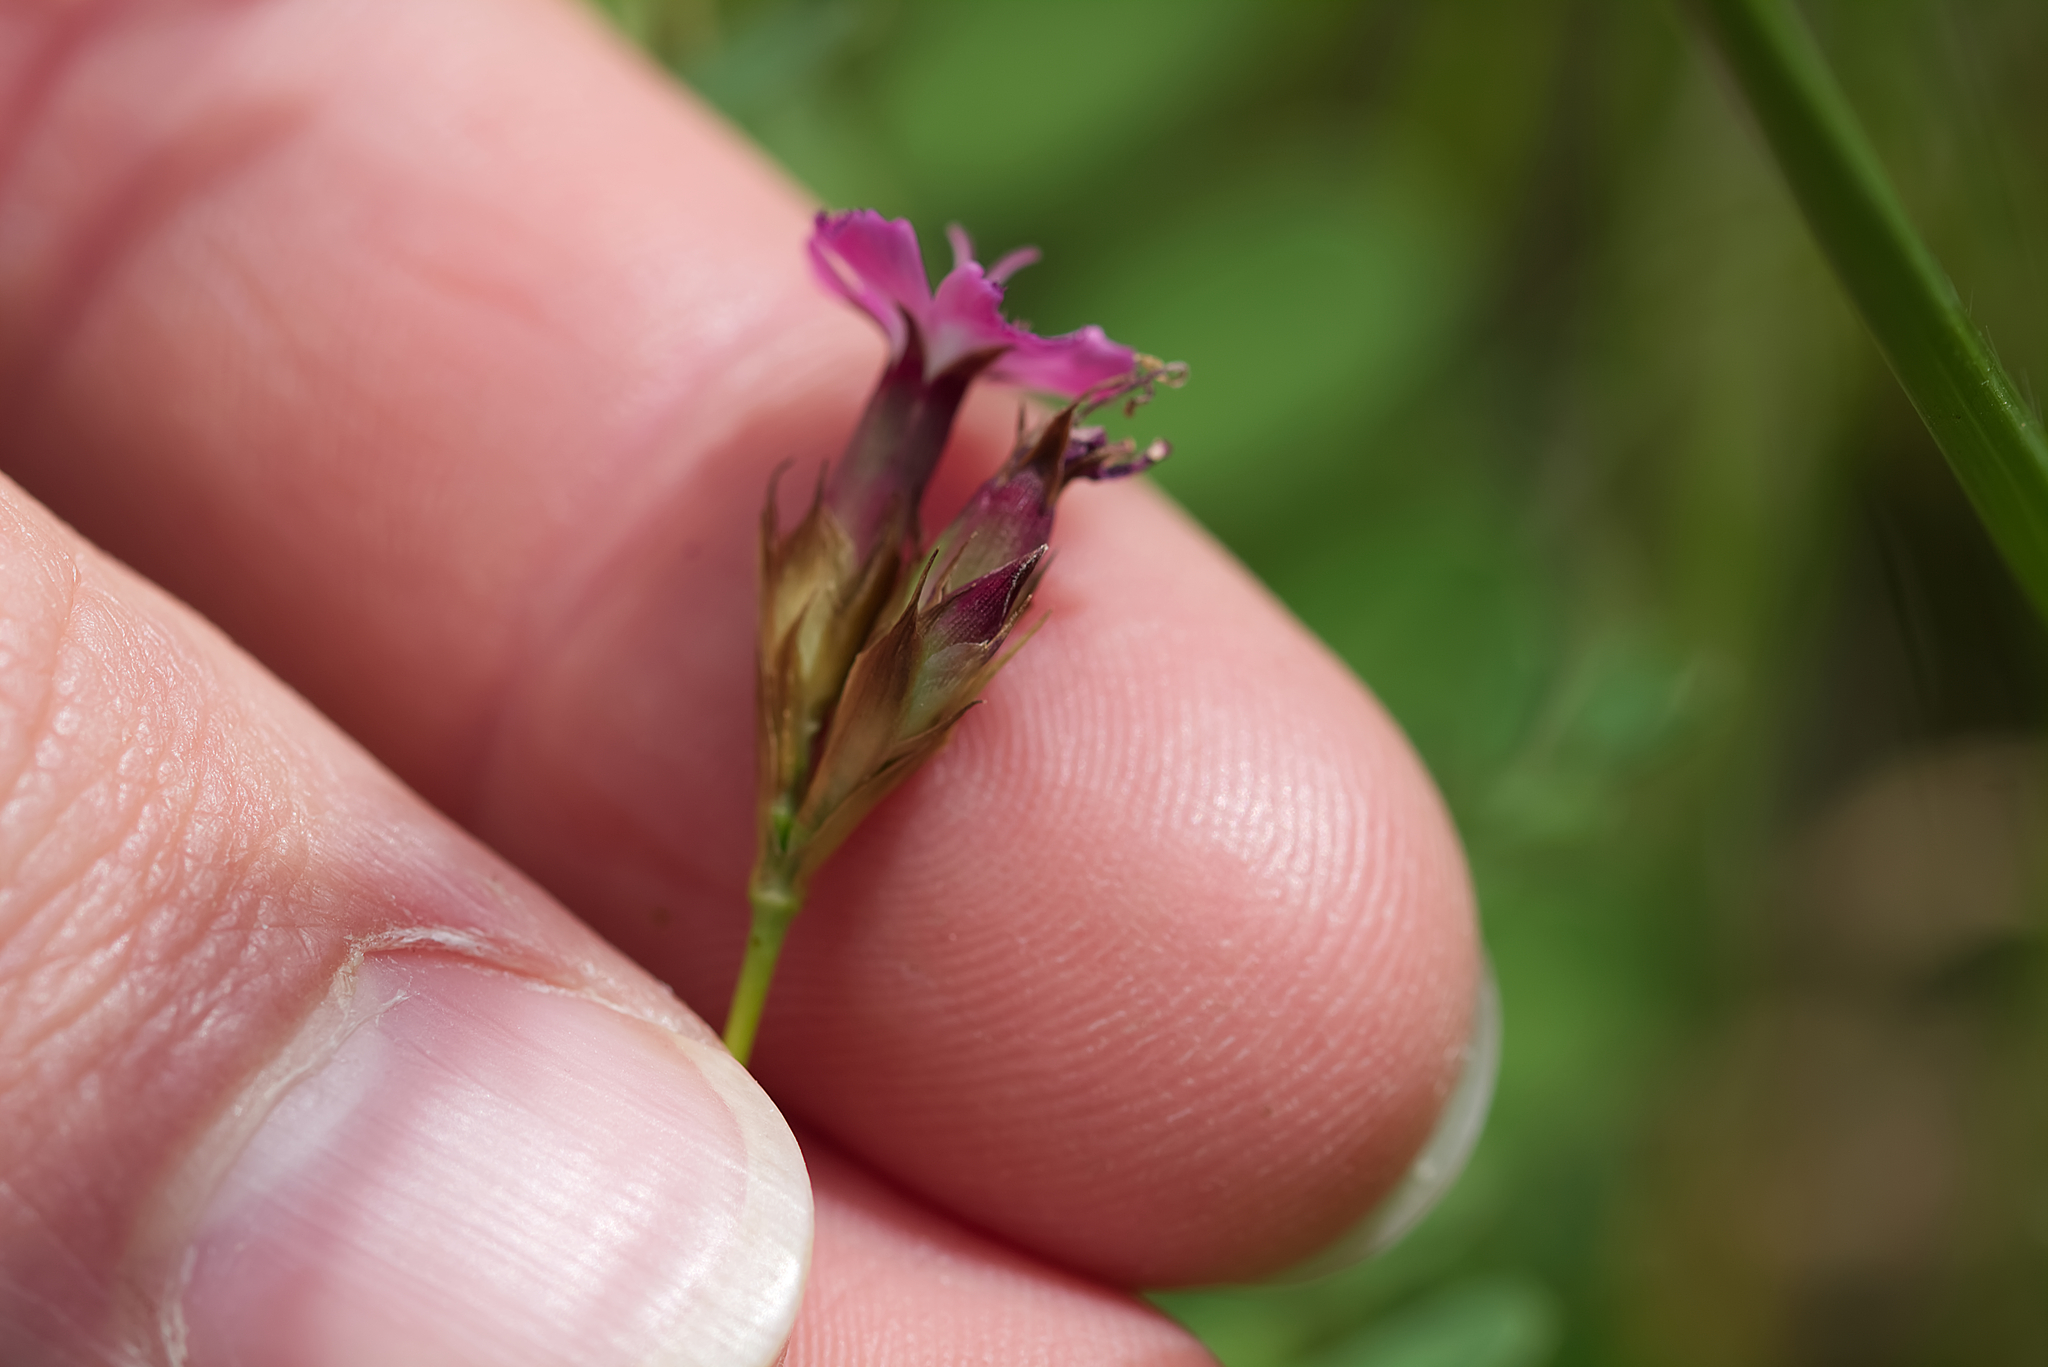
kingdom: Plantae
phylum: Tracheophyta
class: Magnoliopsida
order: Caryophyllales
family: Caryophyllaceae
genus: Dianthus
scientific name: Dianthus pontederae
